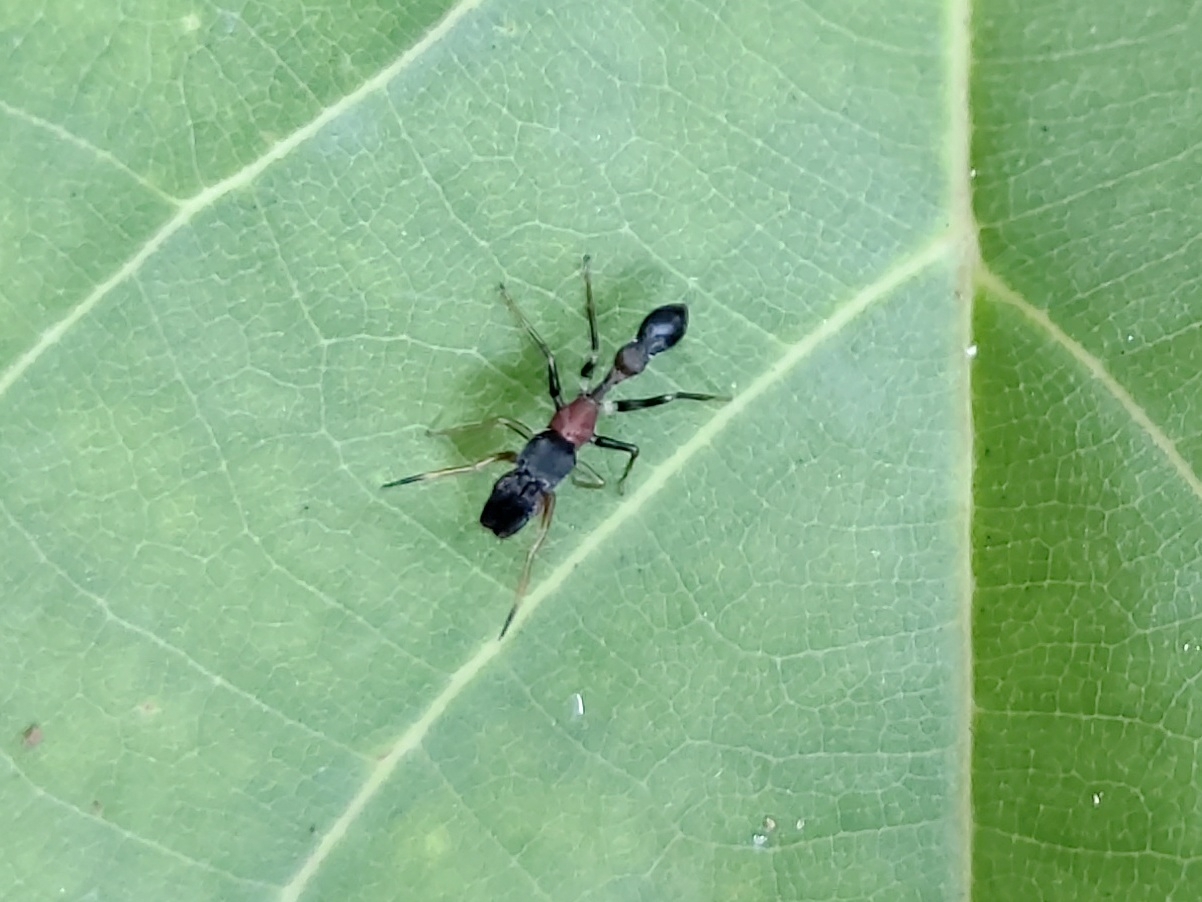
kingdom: Animalia
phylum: Arthropoda
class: Arachnida
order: Araneae
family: Salticidae
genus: Myrmarachne
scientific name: Myrmarachne melanocephala
